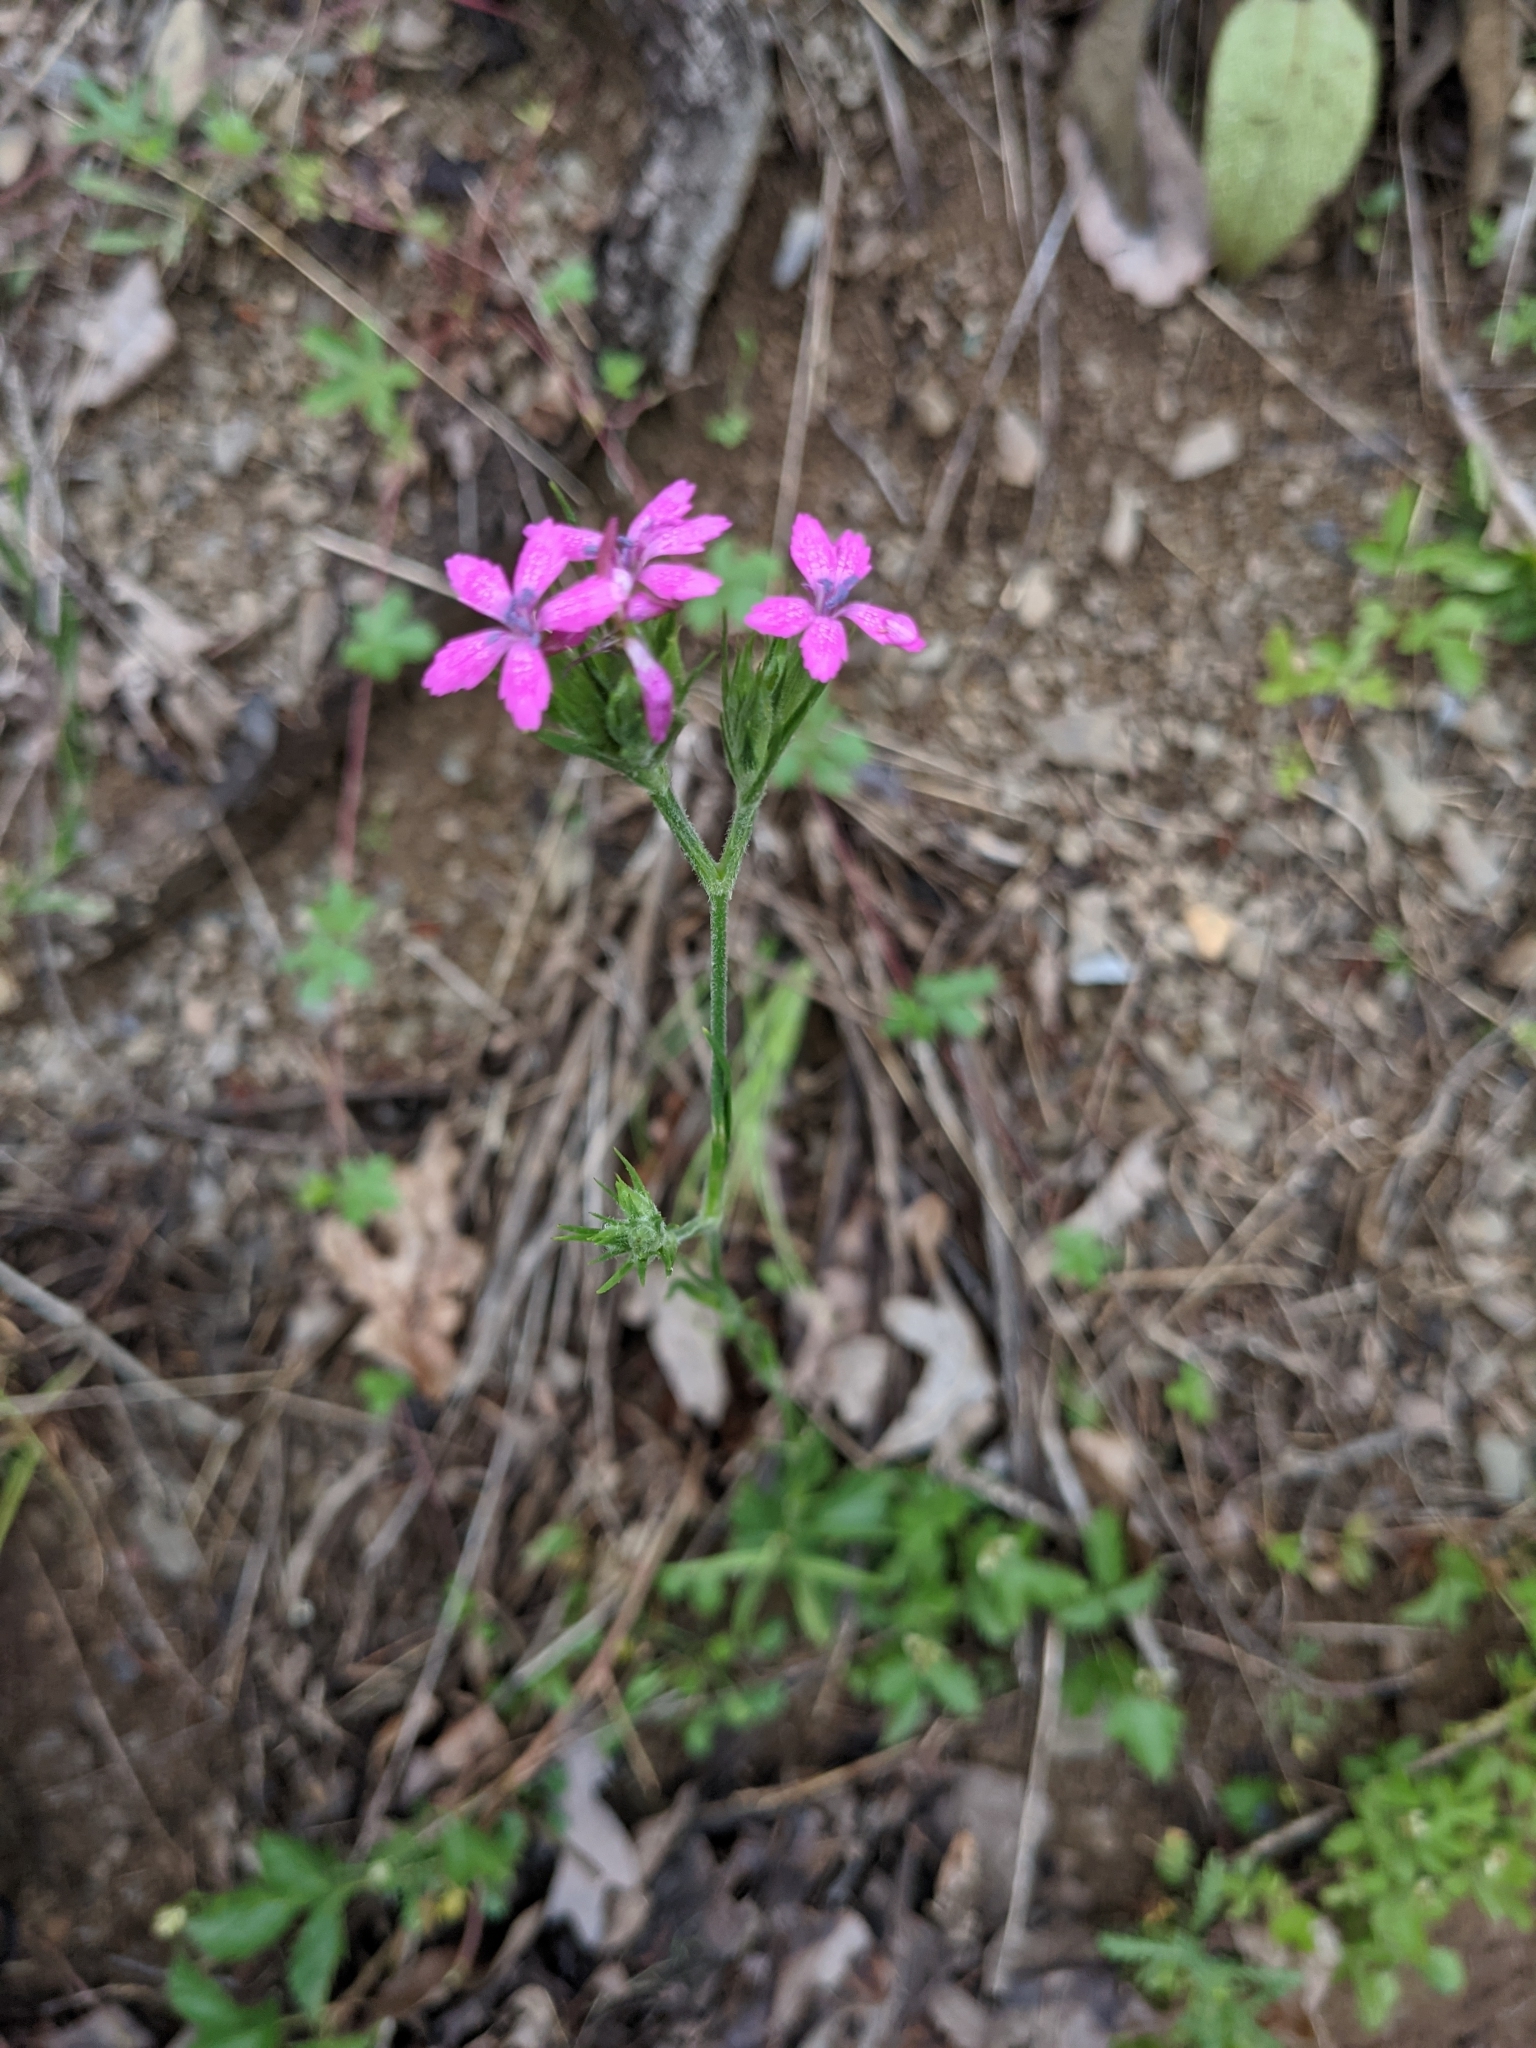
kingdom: Plantae
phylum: Tracheophyta
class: Magnoliopsida
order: Caryophyllales
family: Caryophyllaceae
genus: Dianthus
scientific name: Dianthus armeria
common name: Deptford pink
